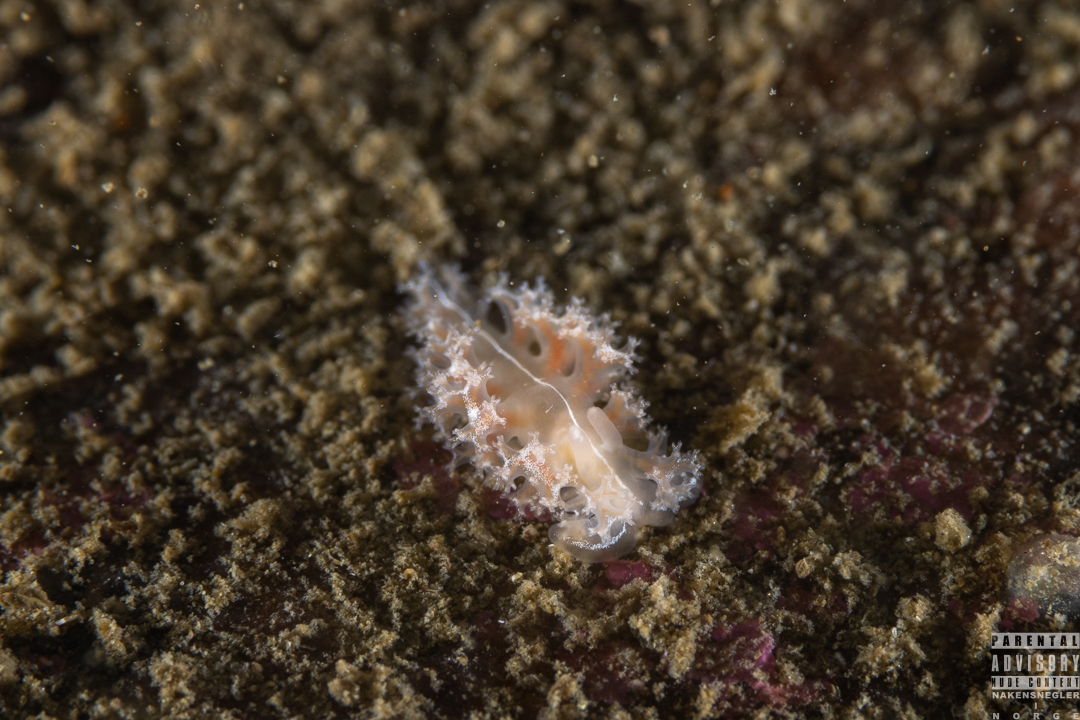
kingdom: Animalia
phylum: Mollusca
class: Gastropoda
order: Nudibranchia
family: Heroidae
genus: Hero
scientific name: Hero formosa
